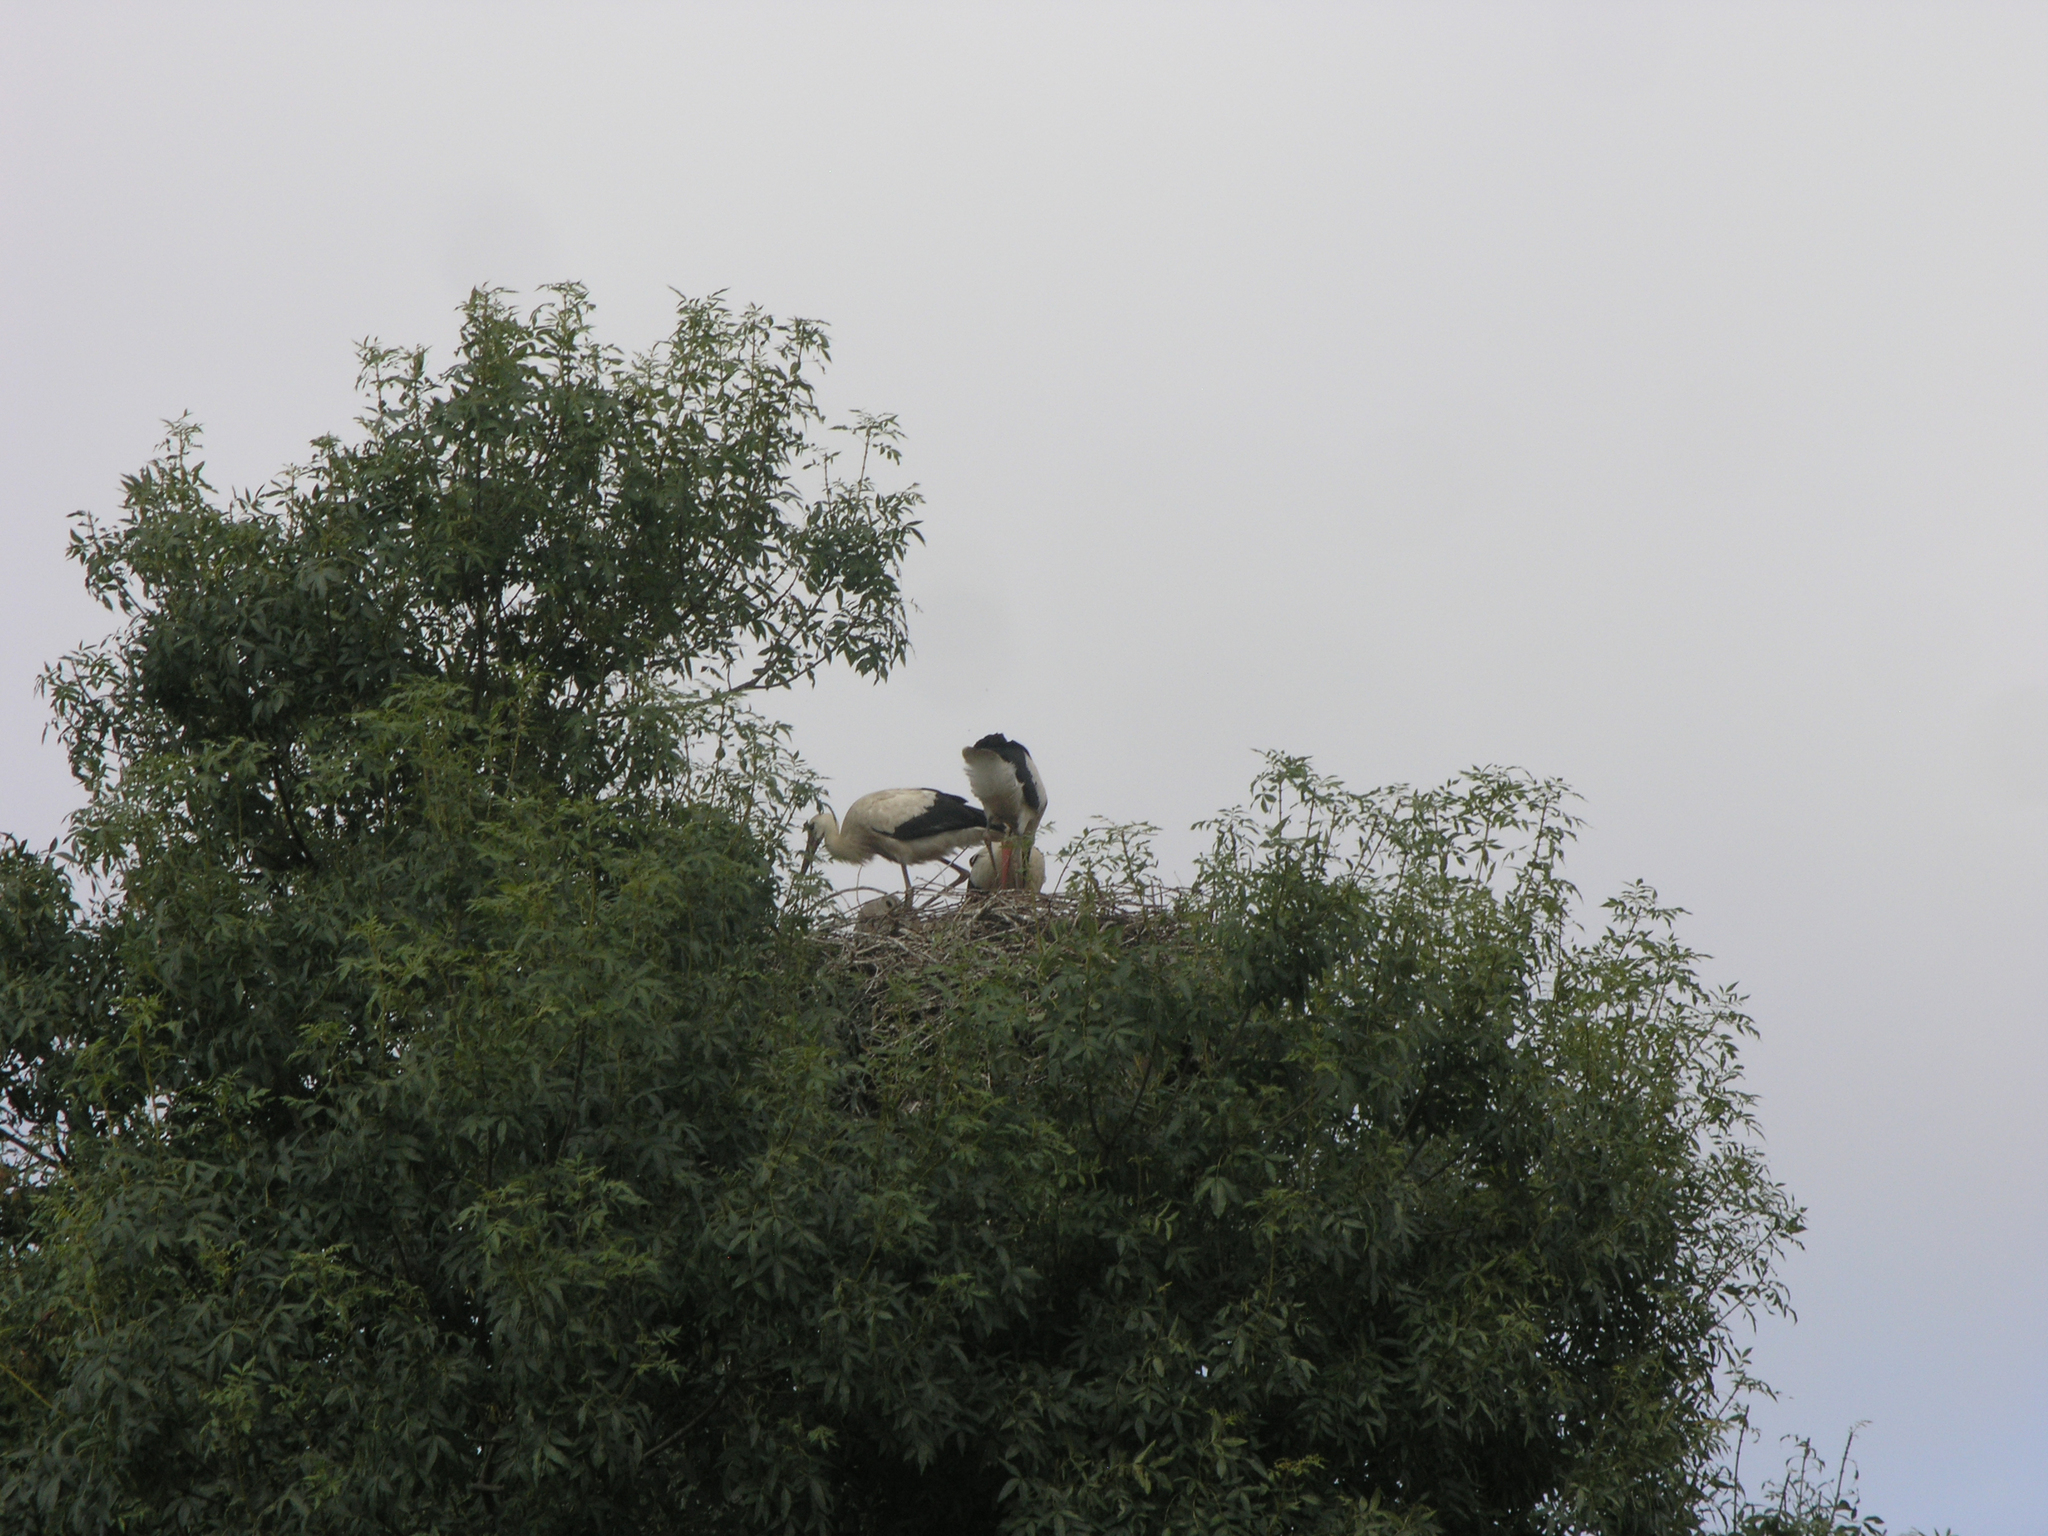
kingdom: Animalia
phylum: Chordata
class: Aves
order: Ciconiiformes
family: Ciconiidae
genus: Ciconia
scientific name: Ciconia ciconia
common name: White stork
